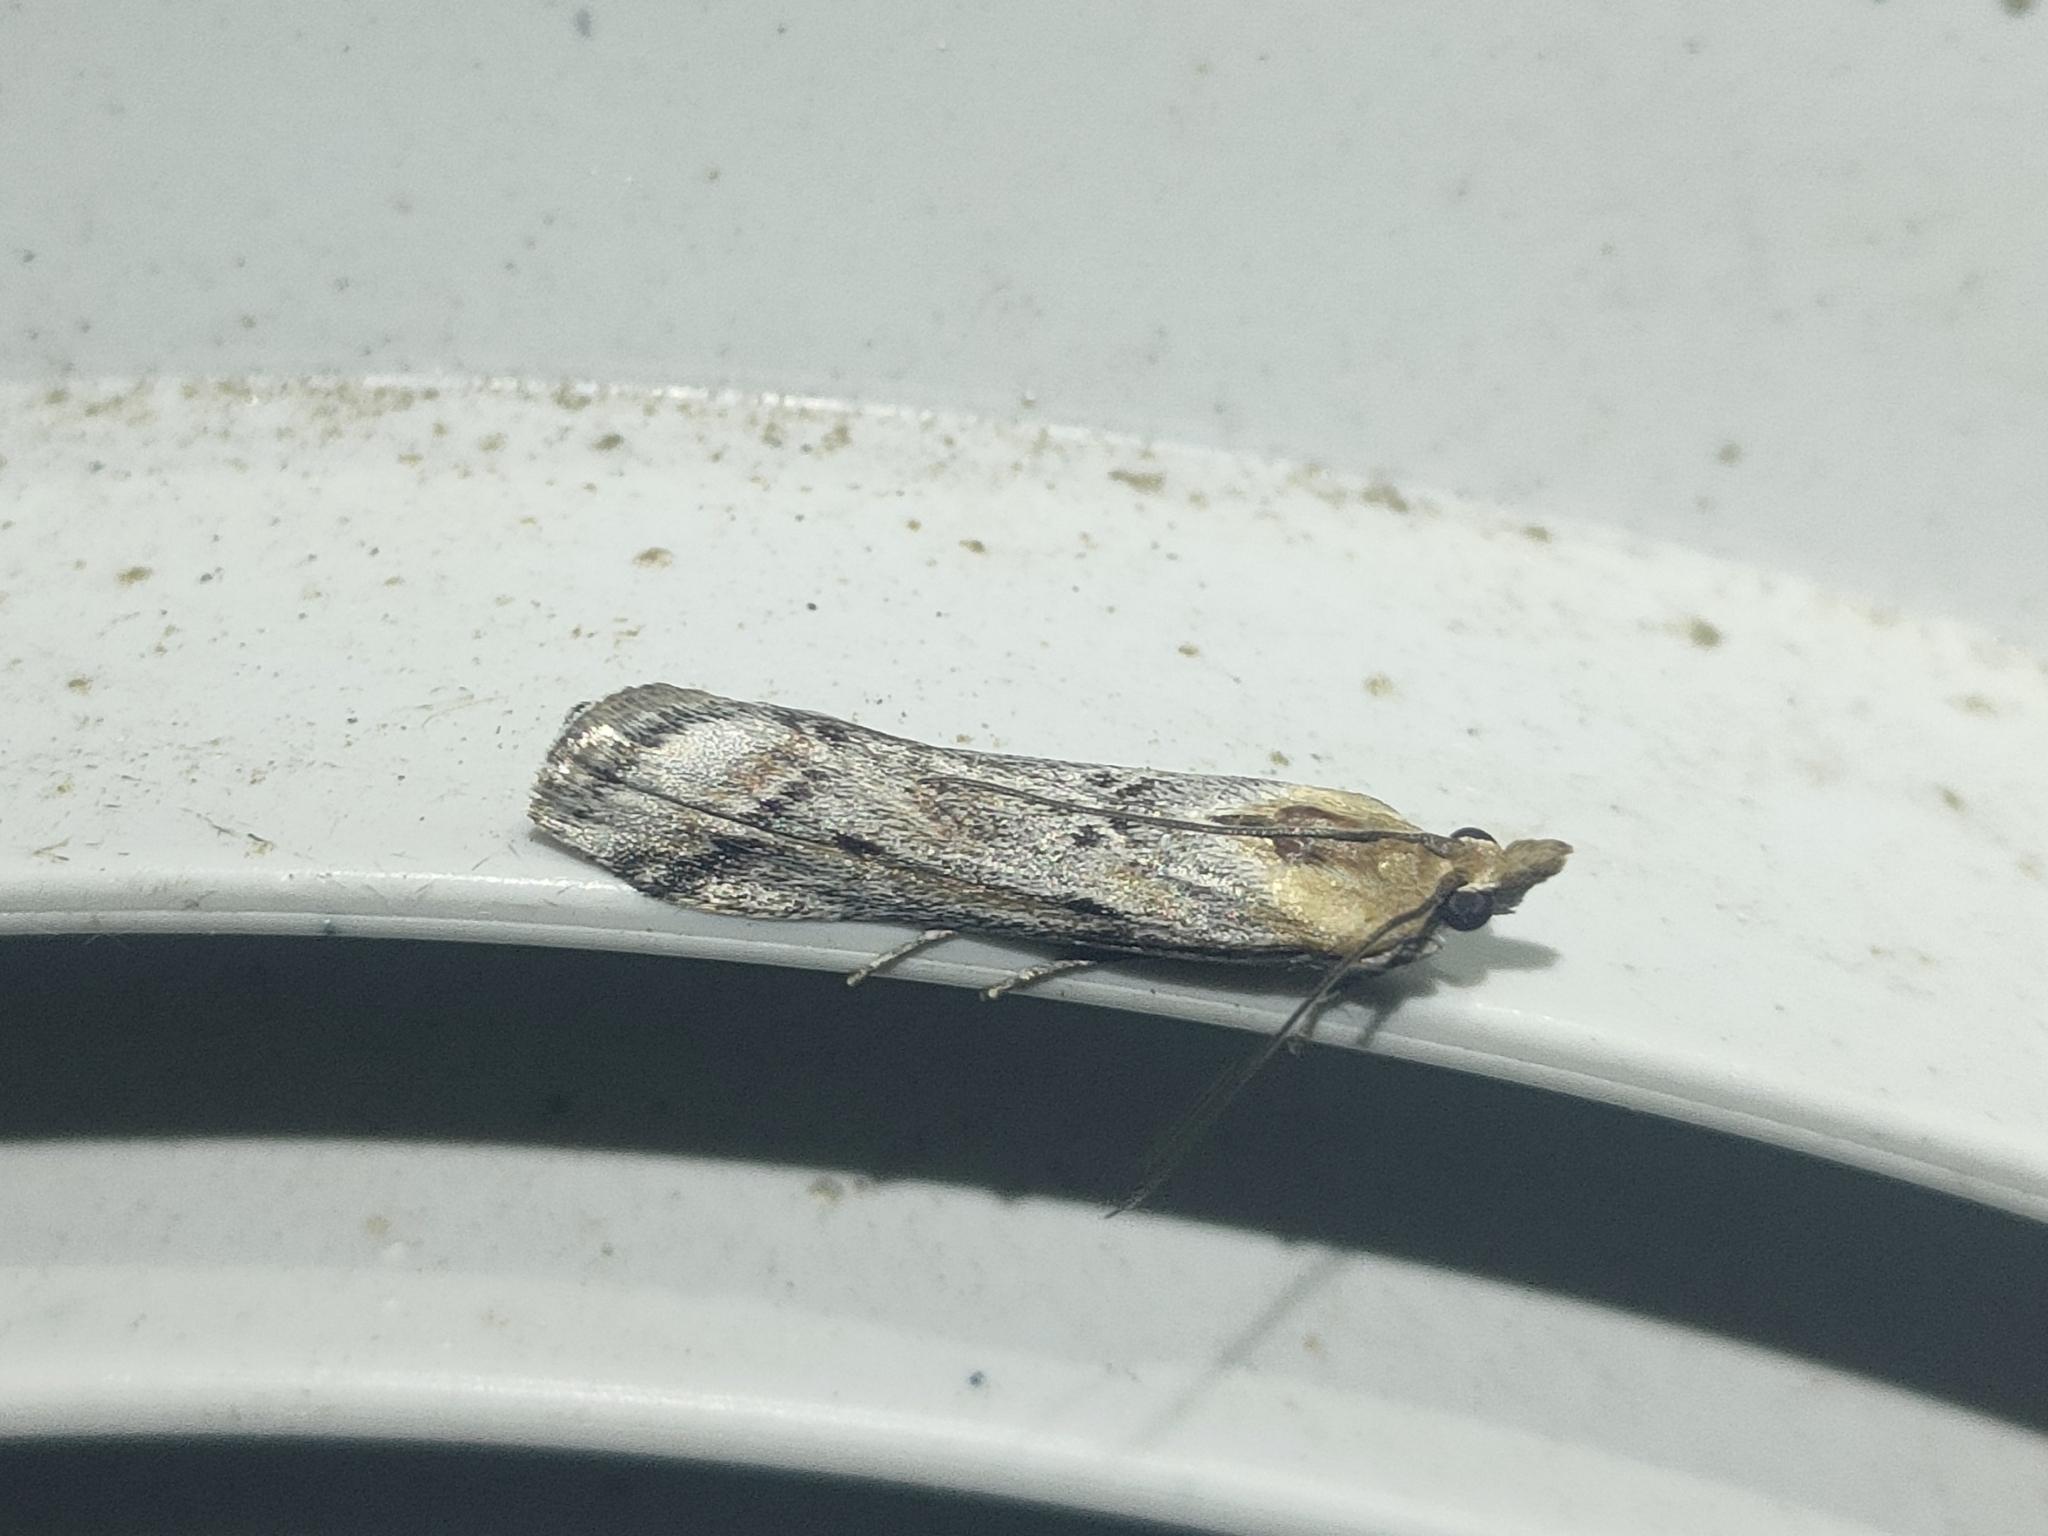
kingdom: Animalia
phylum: Arthropoda
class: Insecta
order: Lepidoptera
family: Pyralidae
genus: Ancylosis
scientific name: Ancylosis cinnamomella
